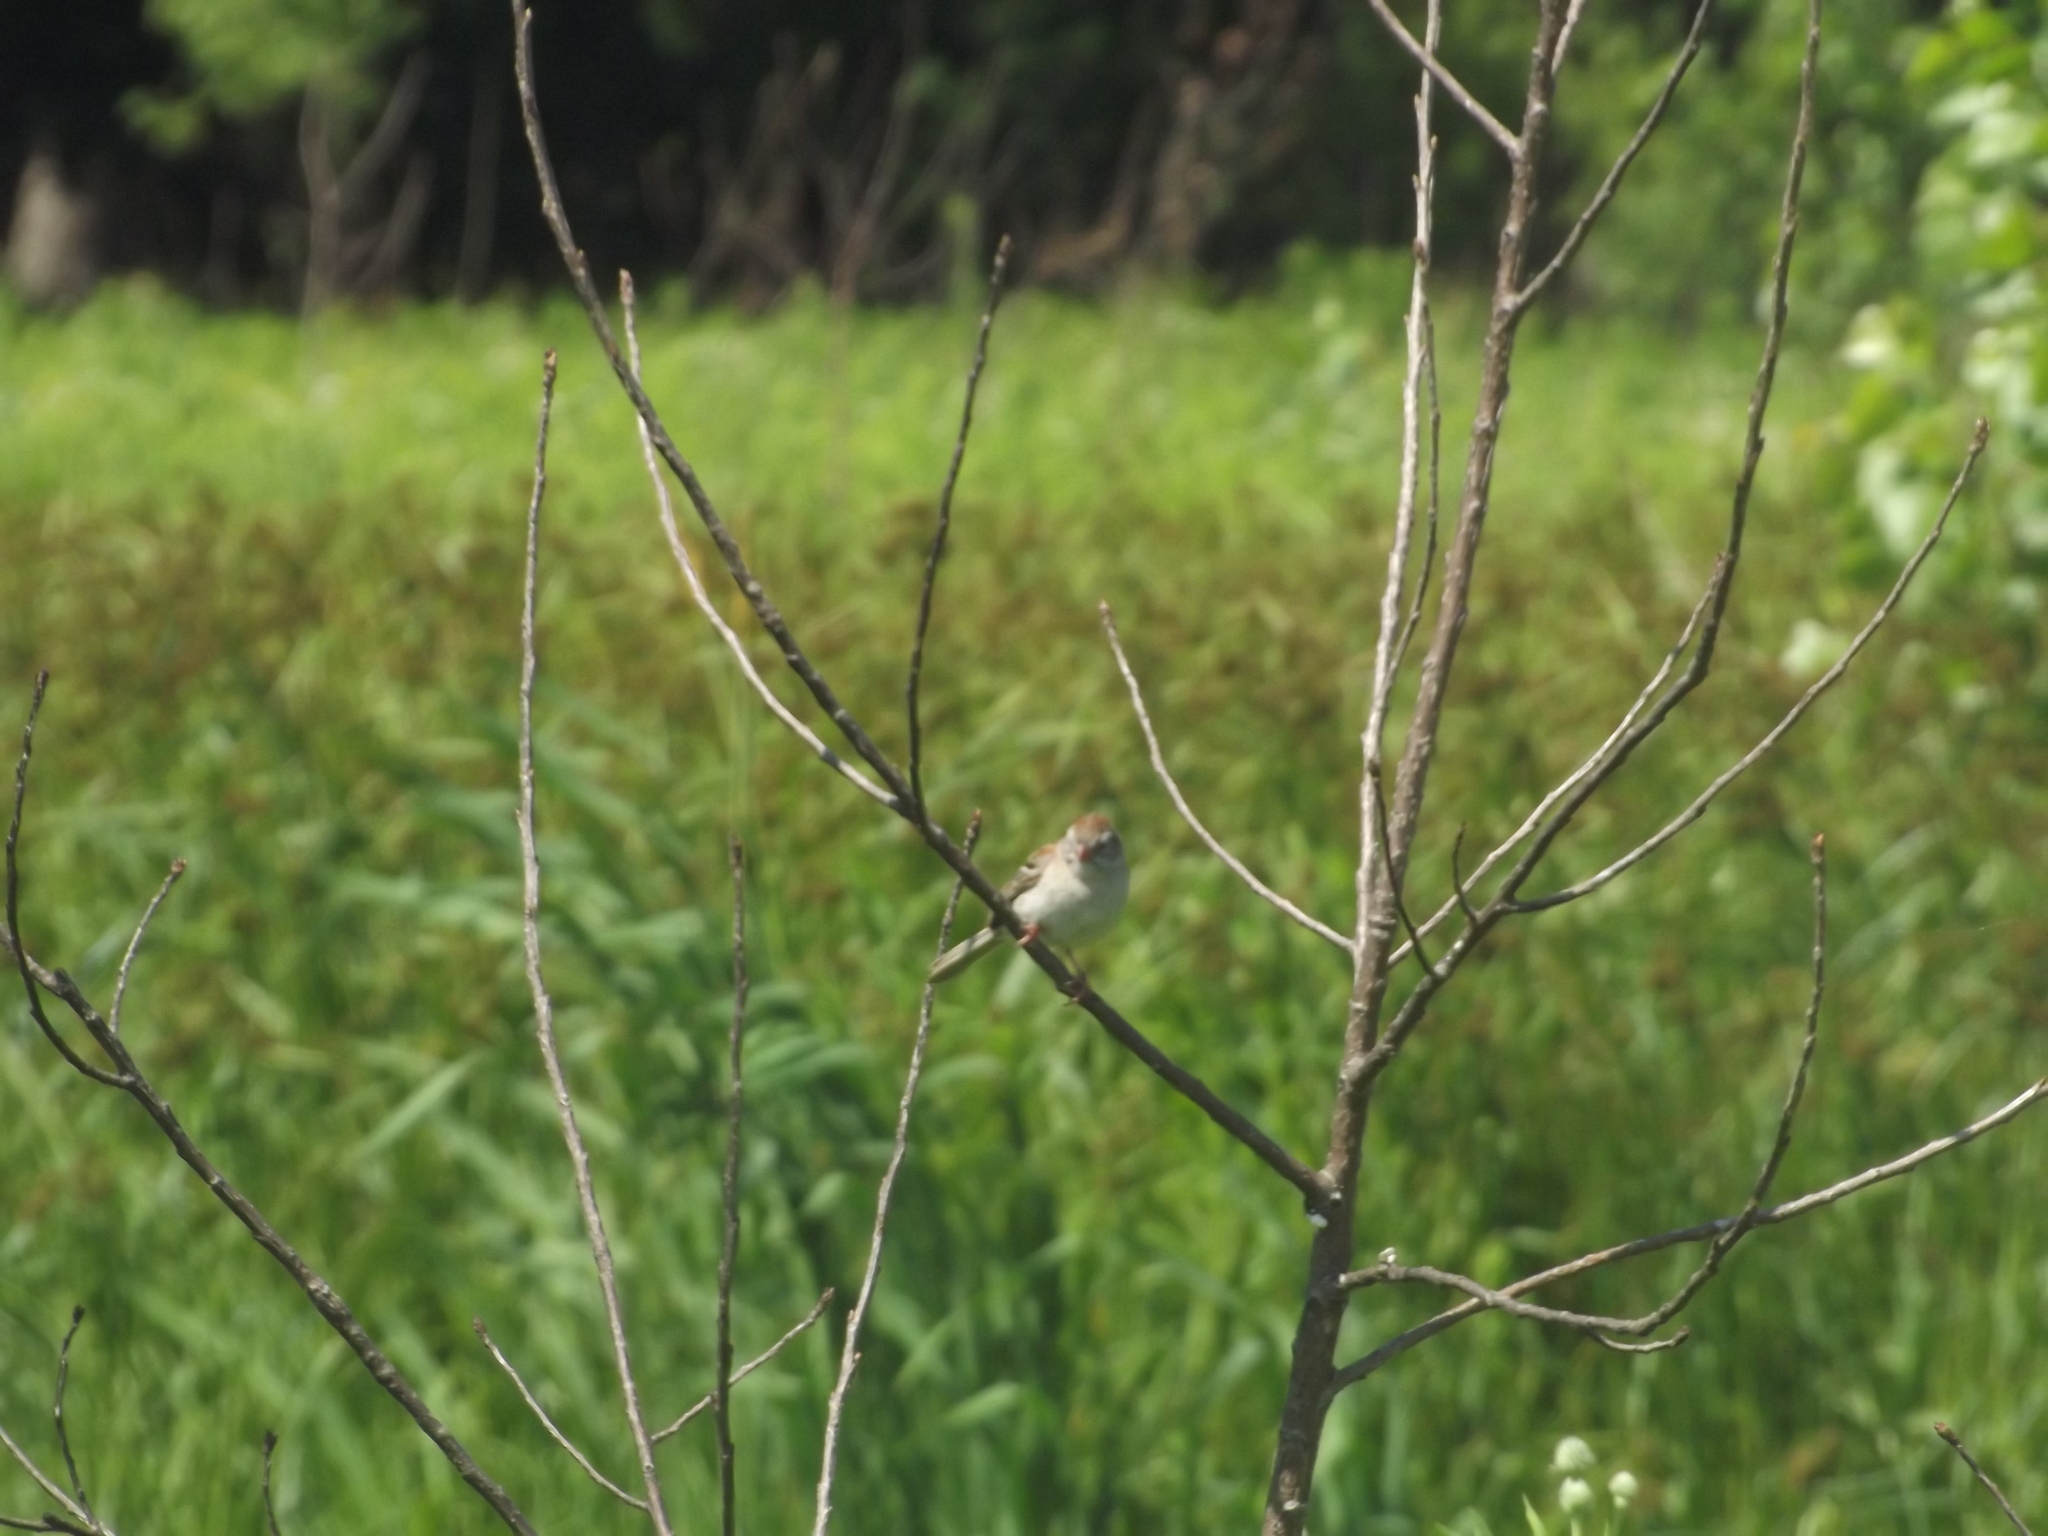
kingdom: Animalia
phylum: Chordata
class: Aves
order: Passeriformes
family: Passerellidae
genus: Spizella
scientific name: Spizella pusilla
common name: Field sparrow
